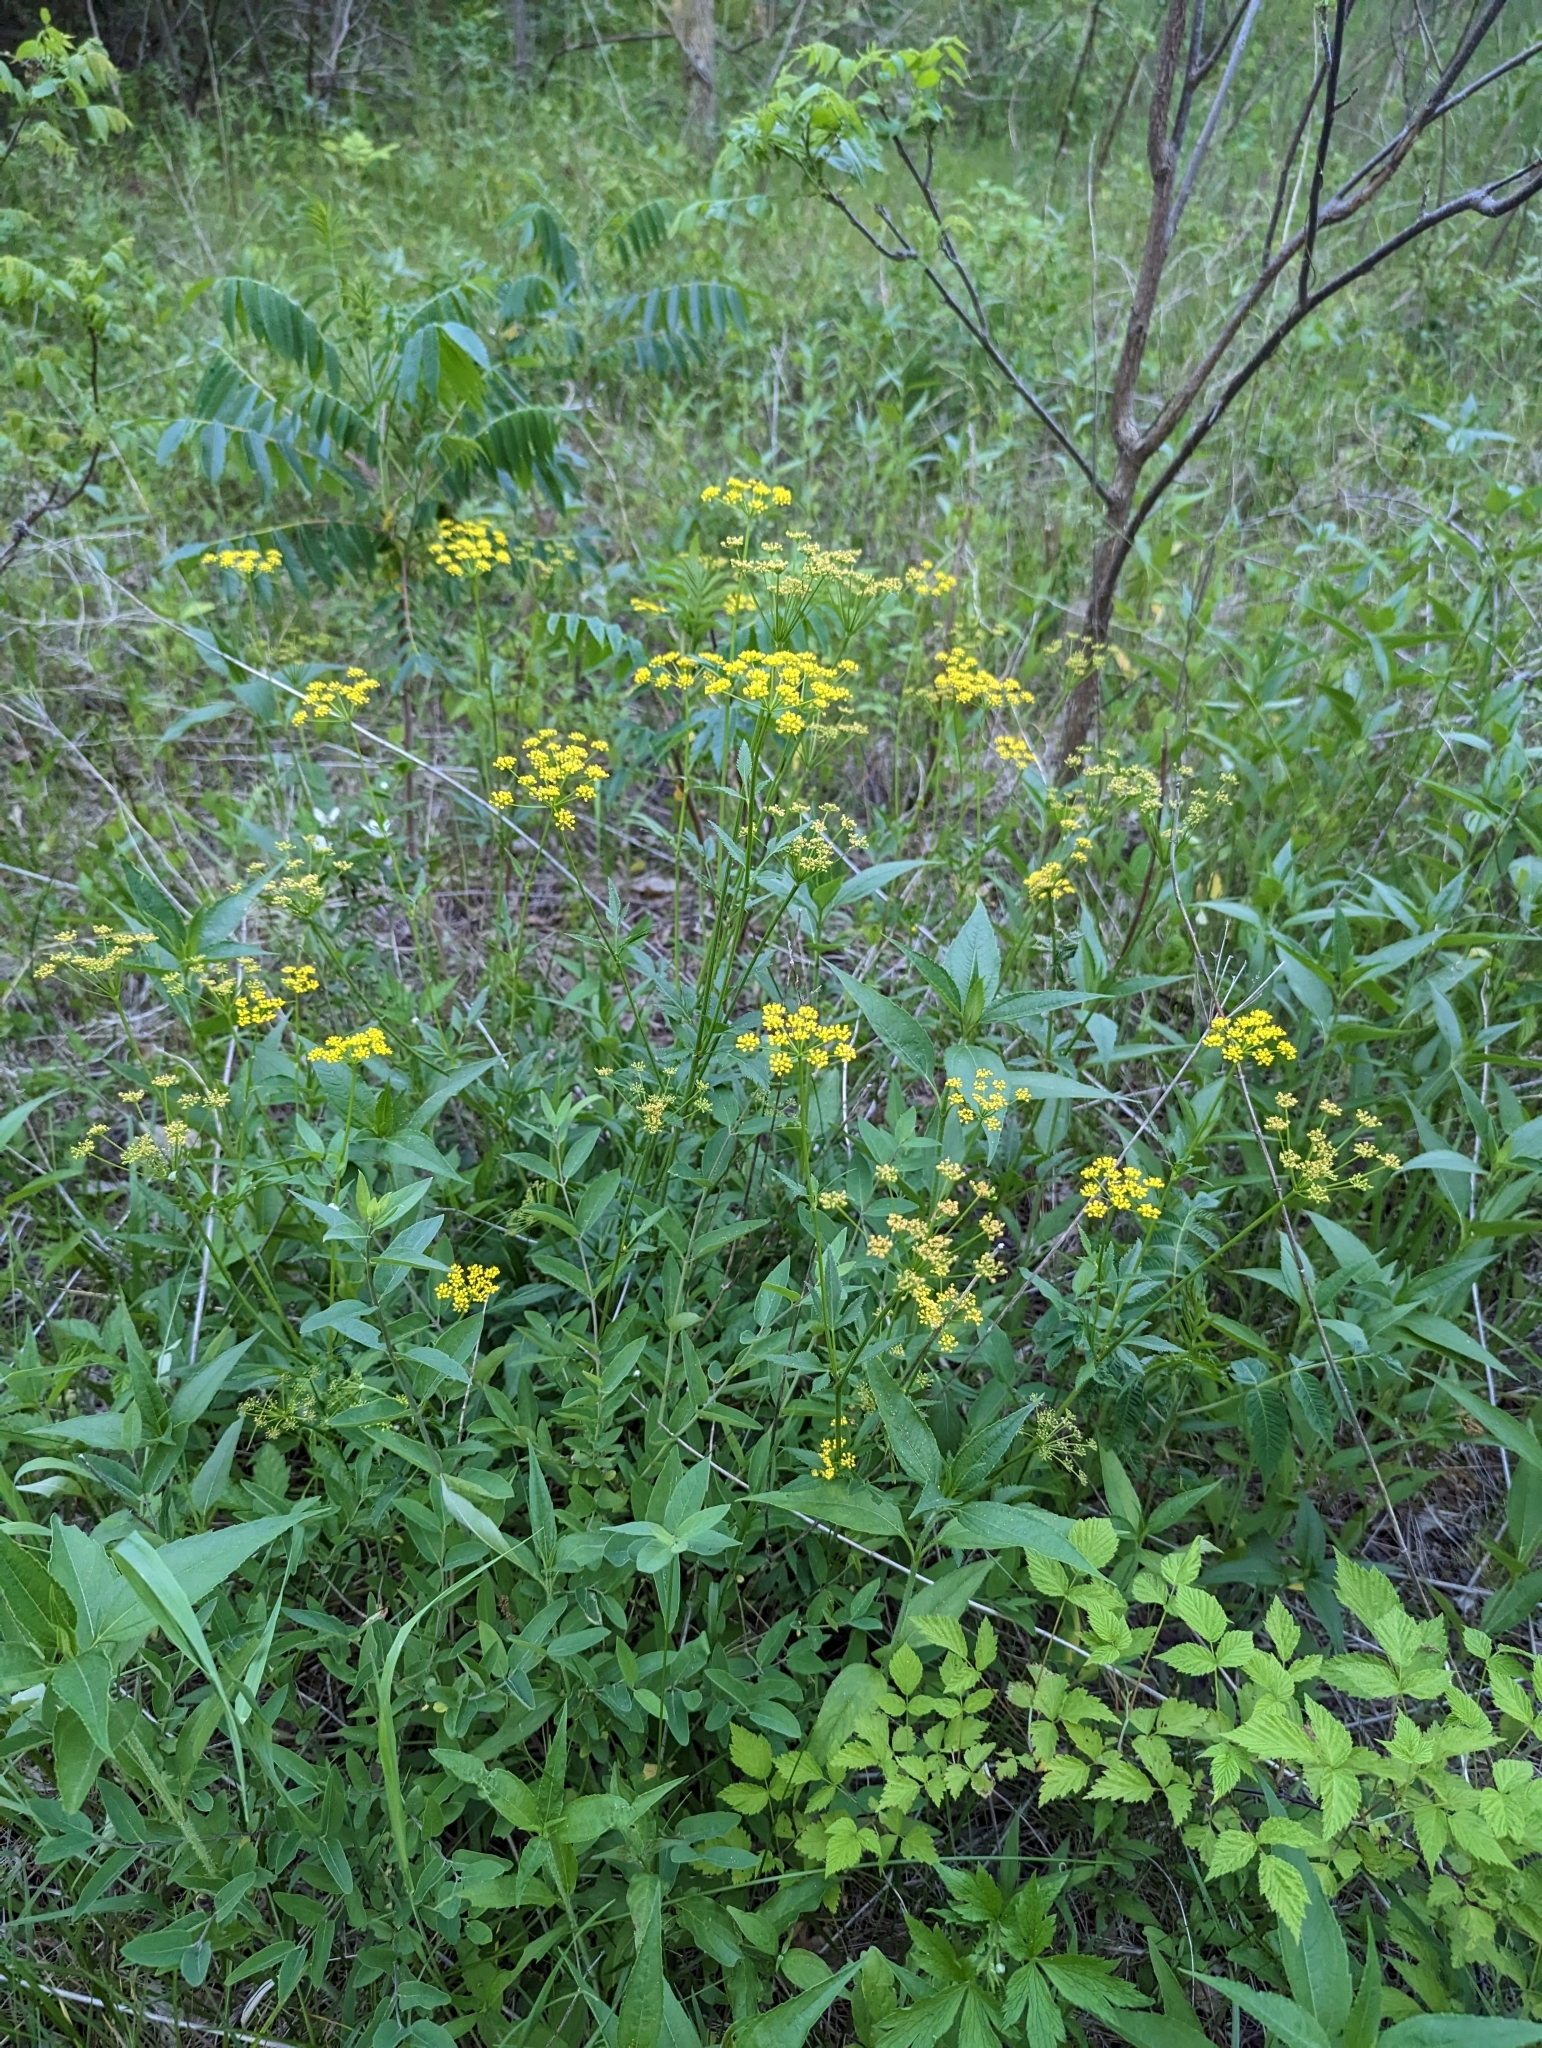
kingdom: Plantae
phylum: Tracheophyta
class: Magnoliopsida
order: Apiales
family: Apiaceae
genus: Zizia
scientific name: Zizia aurea
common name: Golden alexanders
